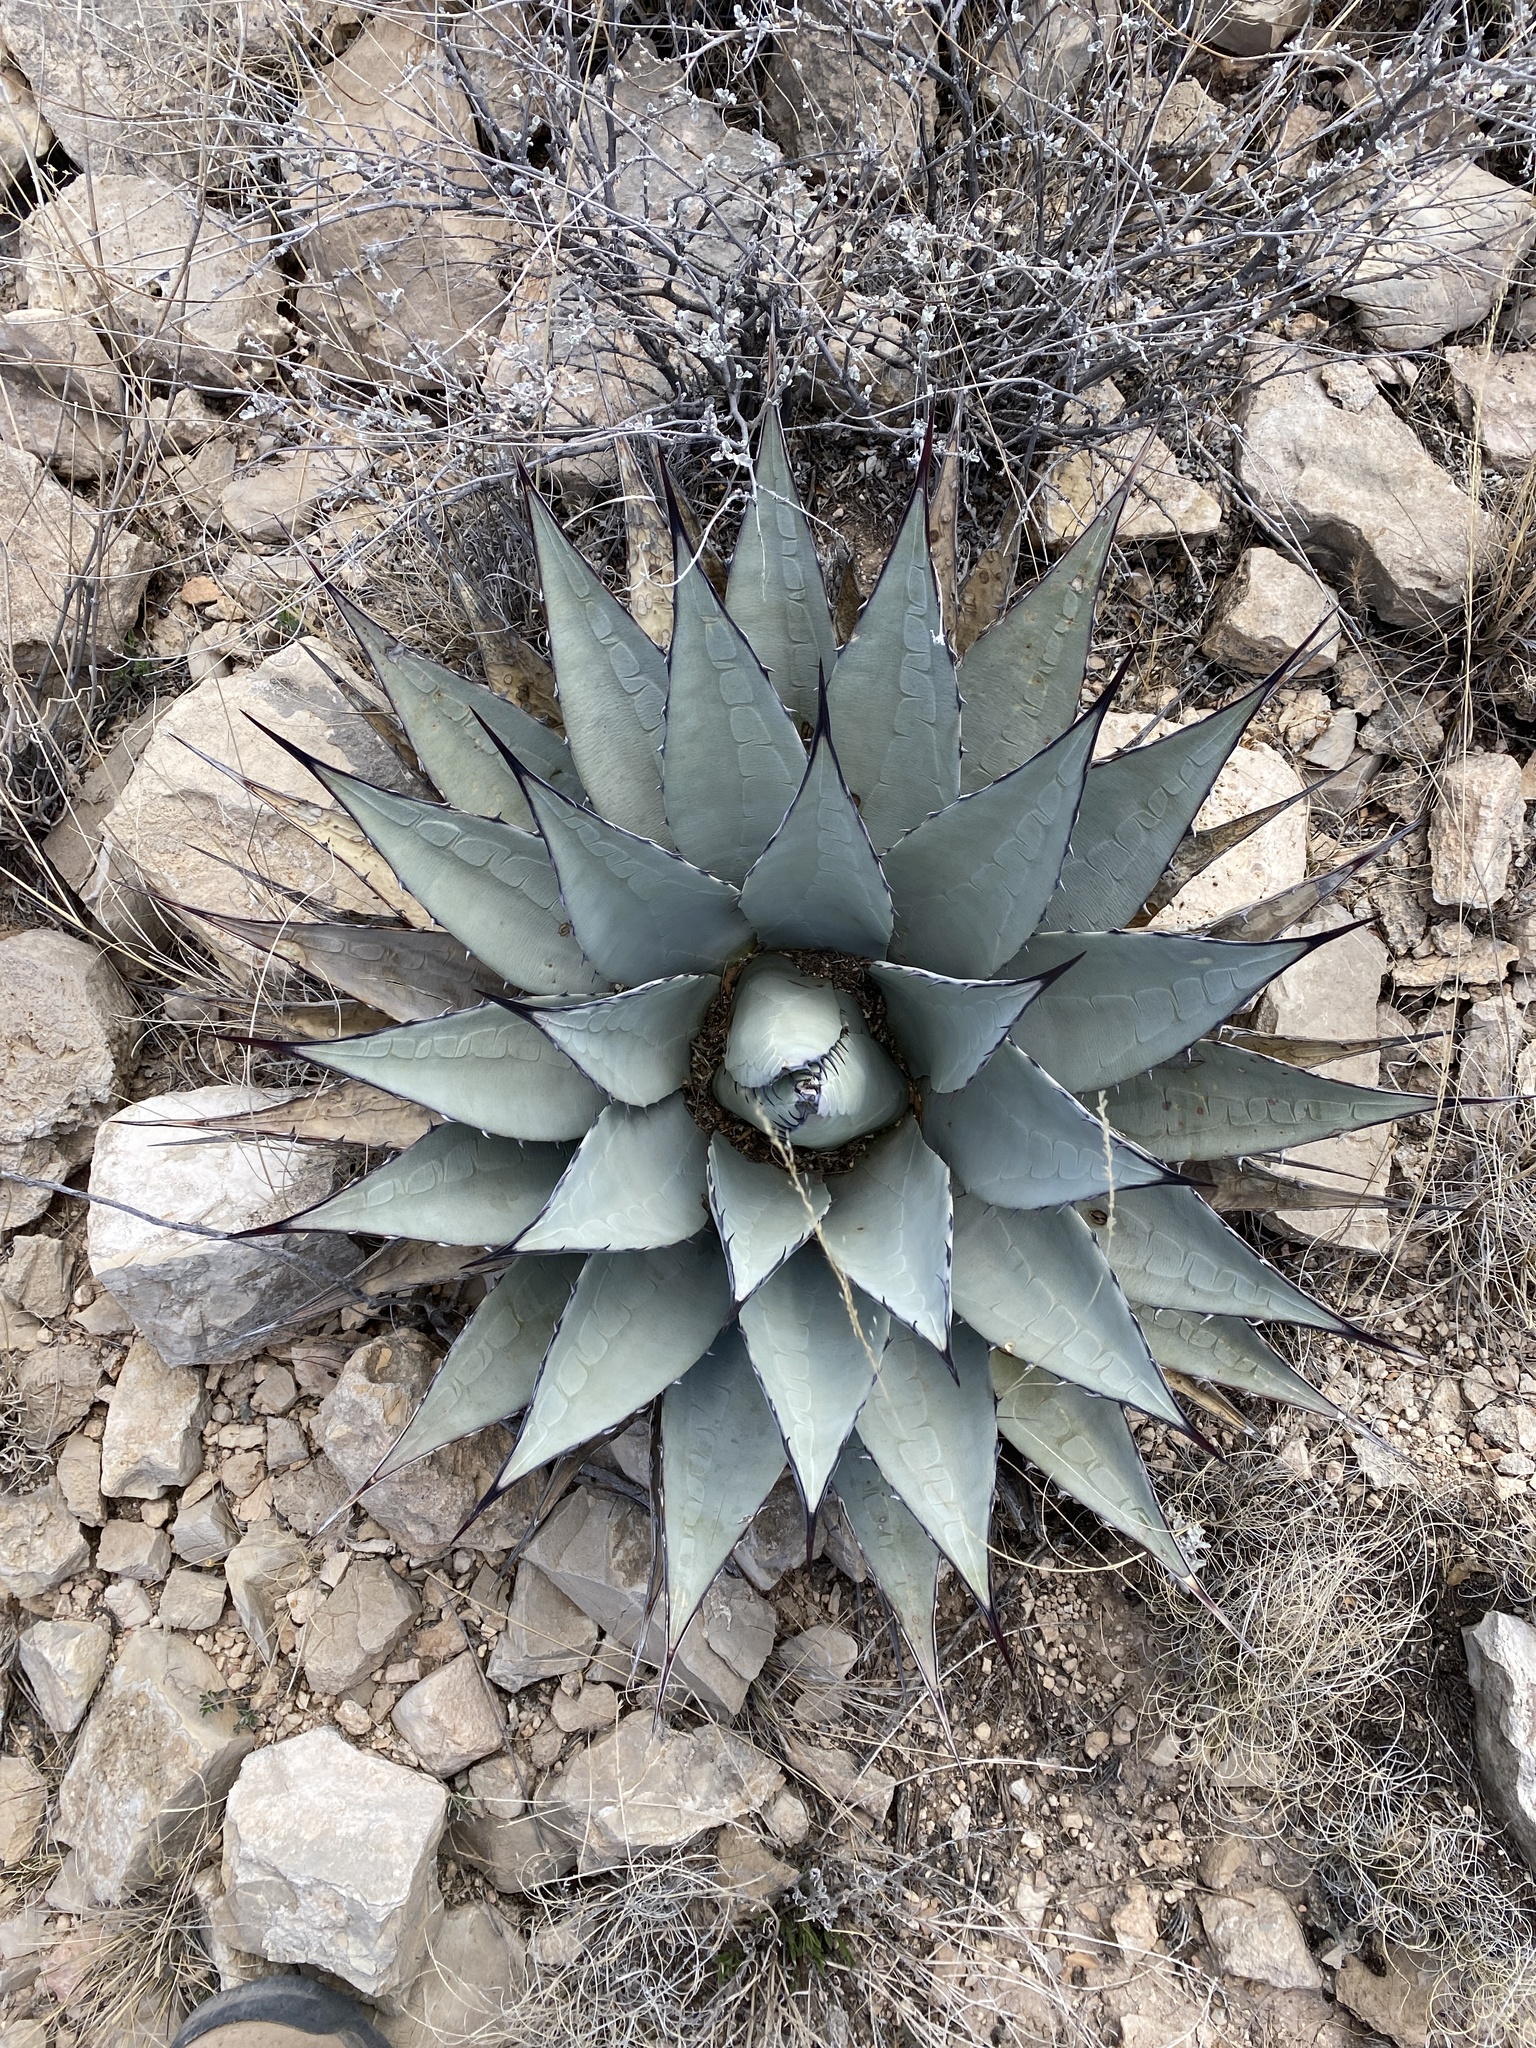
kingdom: Plantae
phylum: Tracheophyta
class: Liliopsida
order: Asparagales
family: Asparagaceae
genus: Agave
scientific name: Agave parryi
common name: Parry's agave
